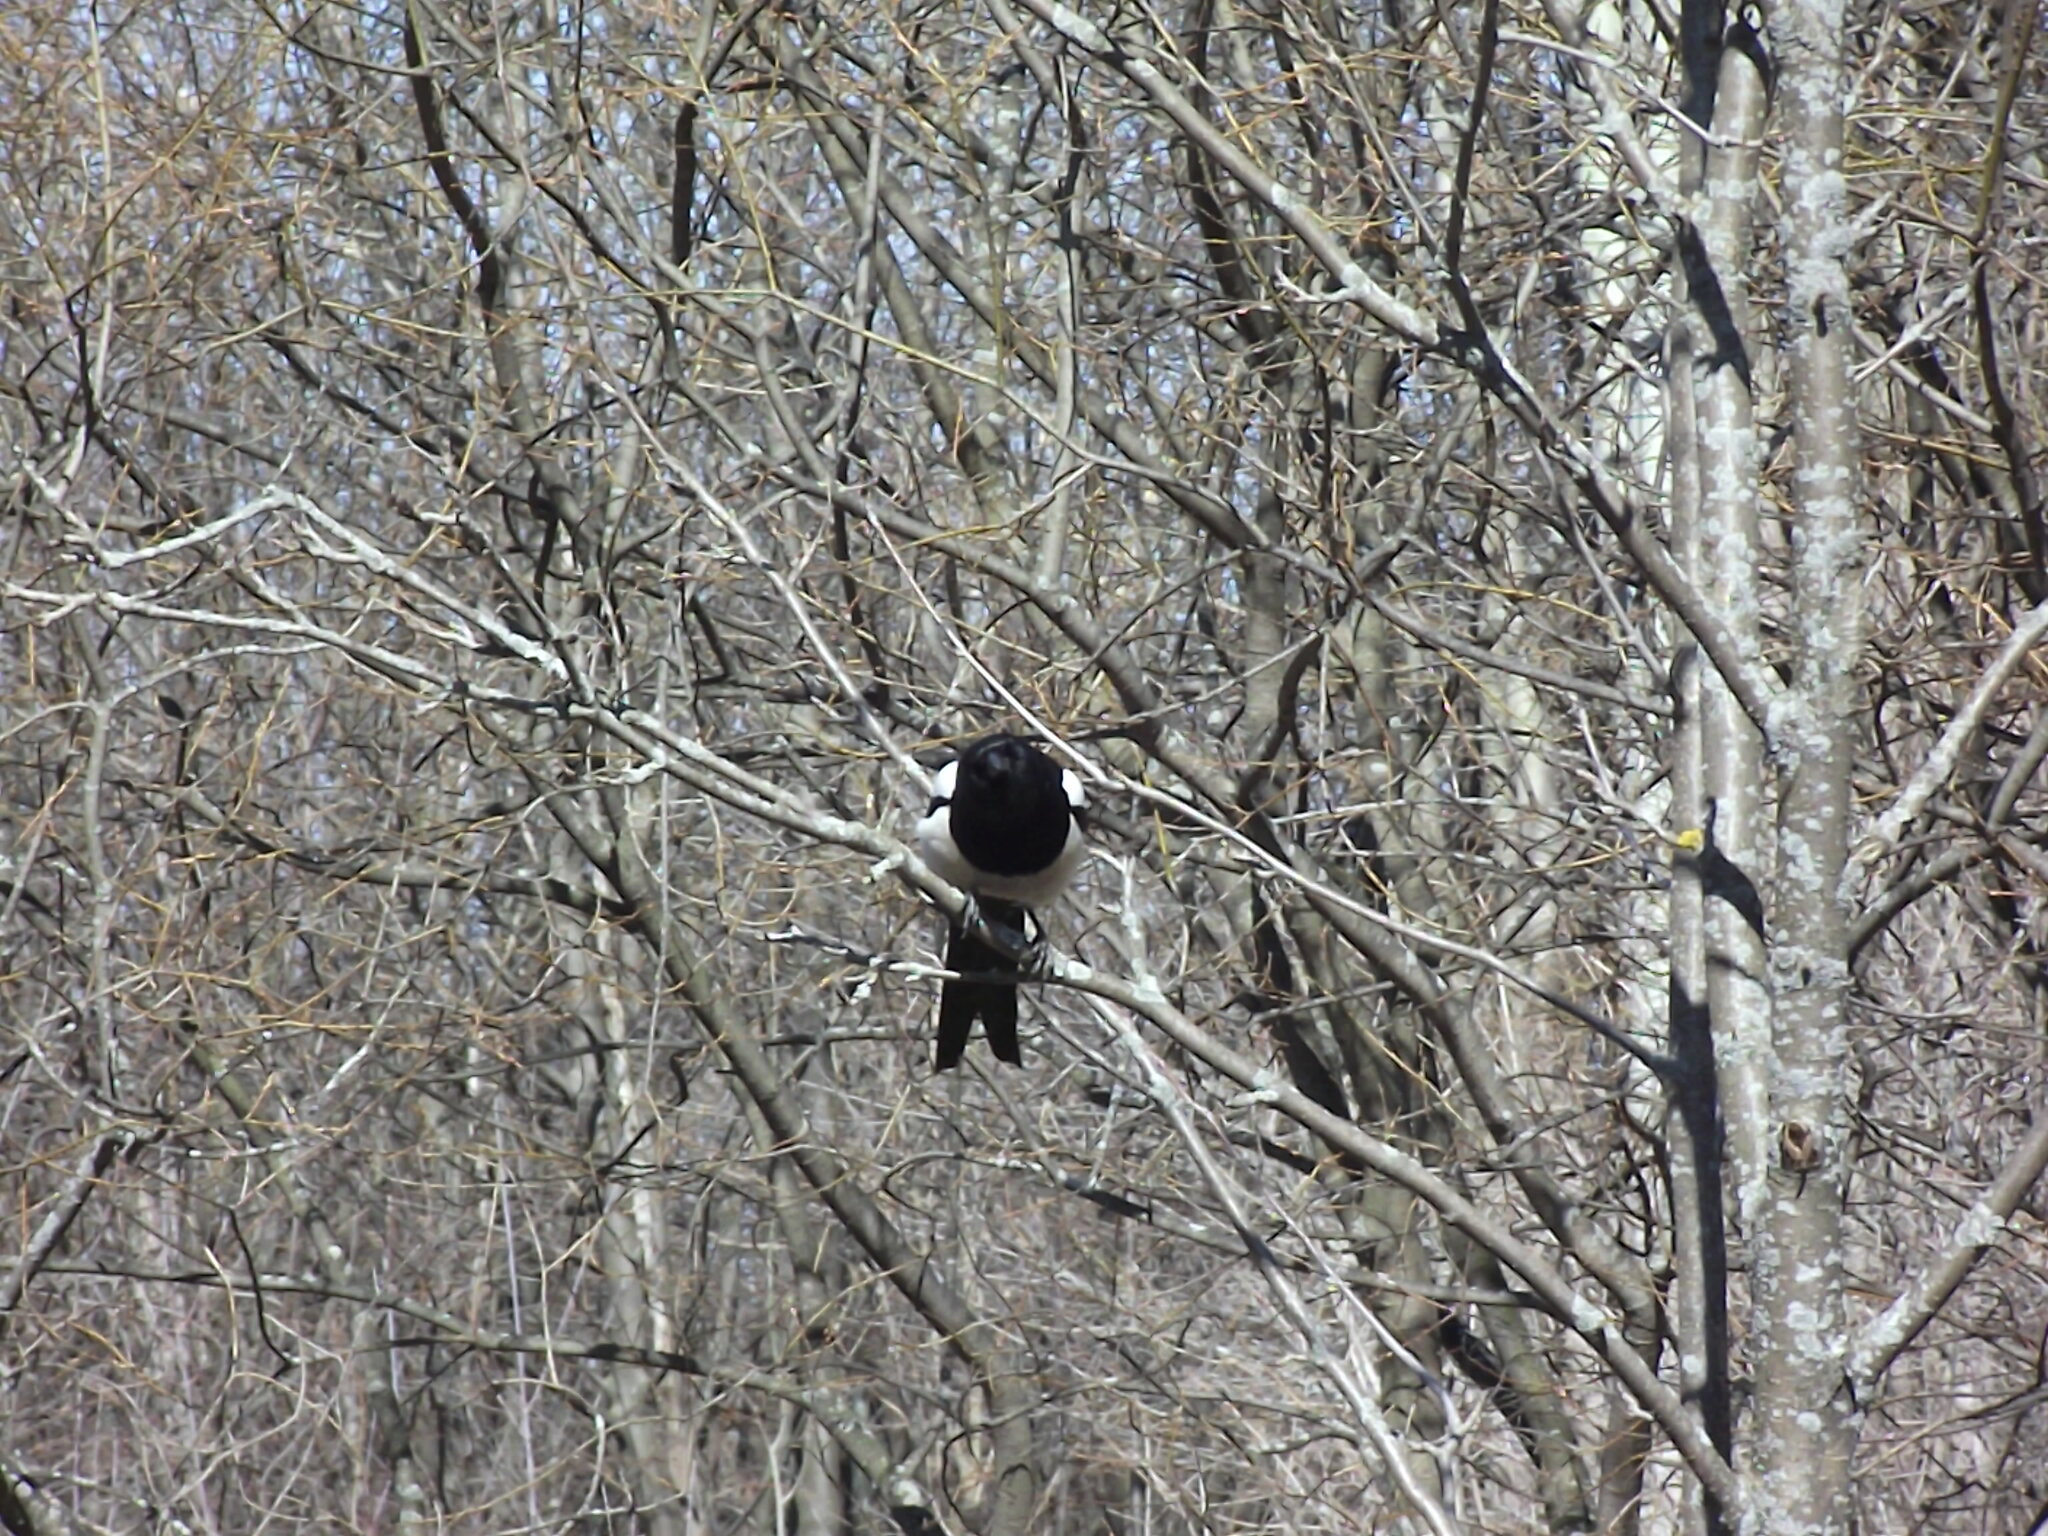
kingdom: Animalia
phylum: Chordata
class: Aves
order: Passeriformes
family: Corvidae
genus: Pica
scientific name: Pica pica
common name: Eurasian magpie
